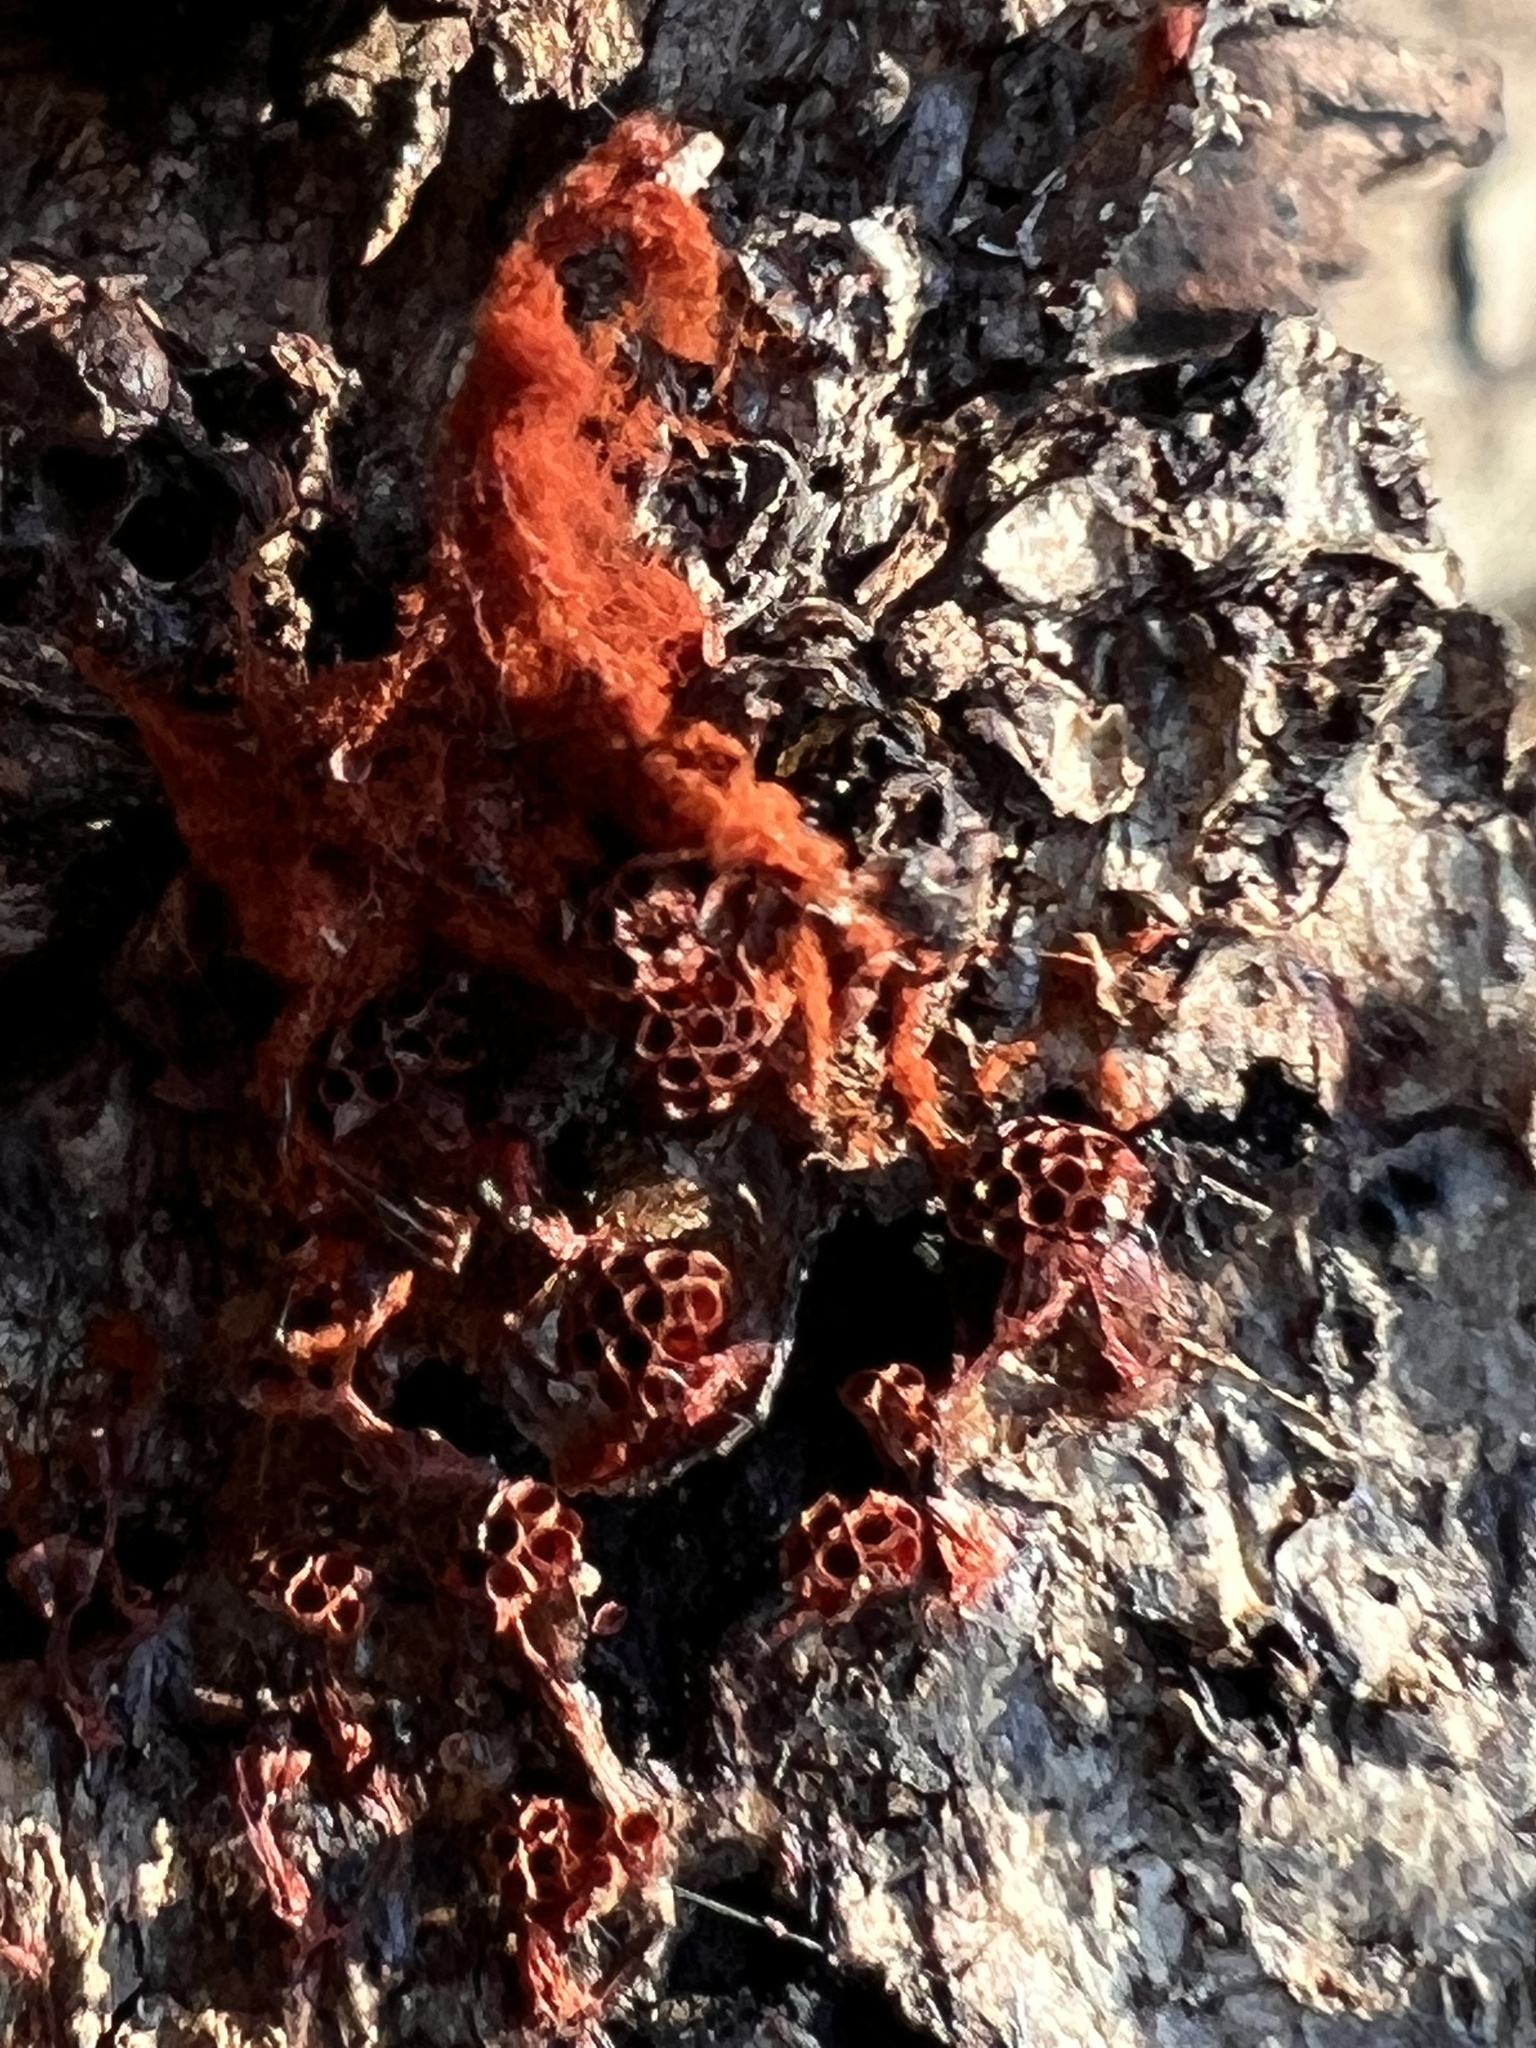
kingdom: Protozoa
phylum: Mycetozoa
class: Myxomycetes
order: Trichiales
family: Trichiaceae
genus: Metatrichia
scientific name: Metatrichia vesparia
